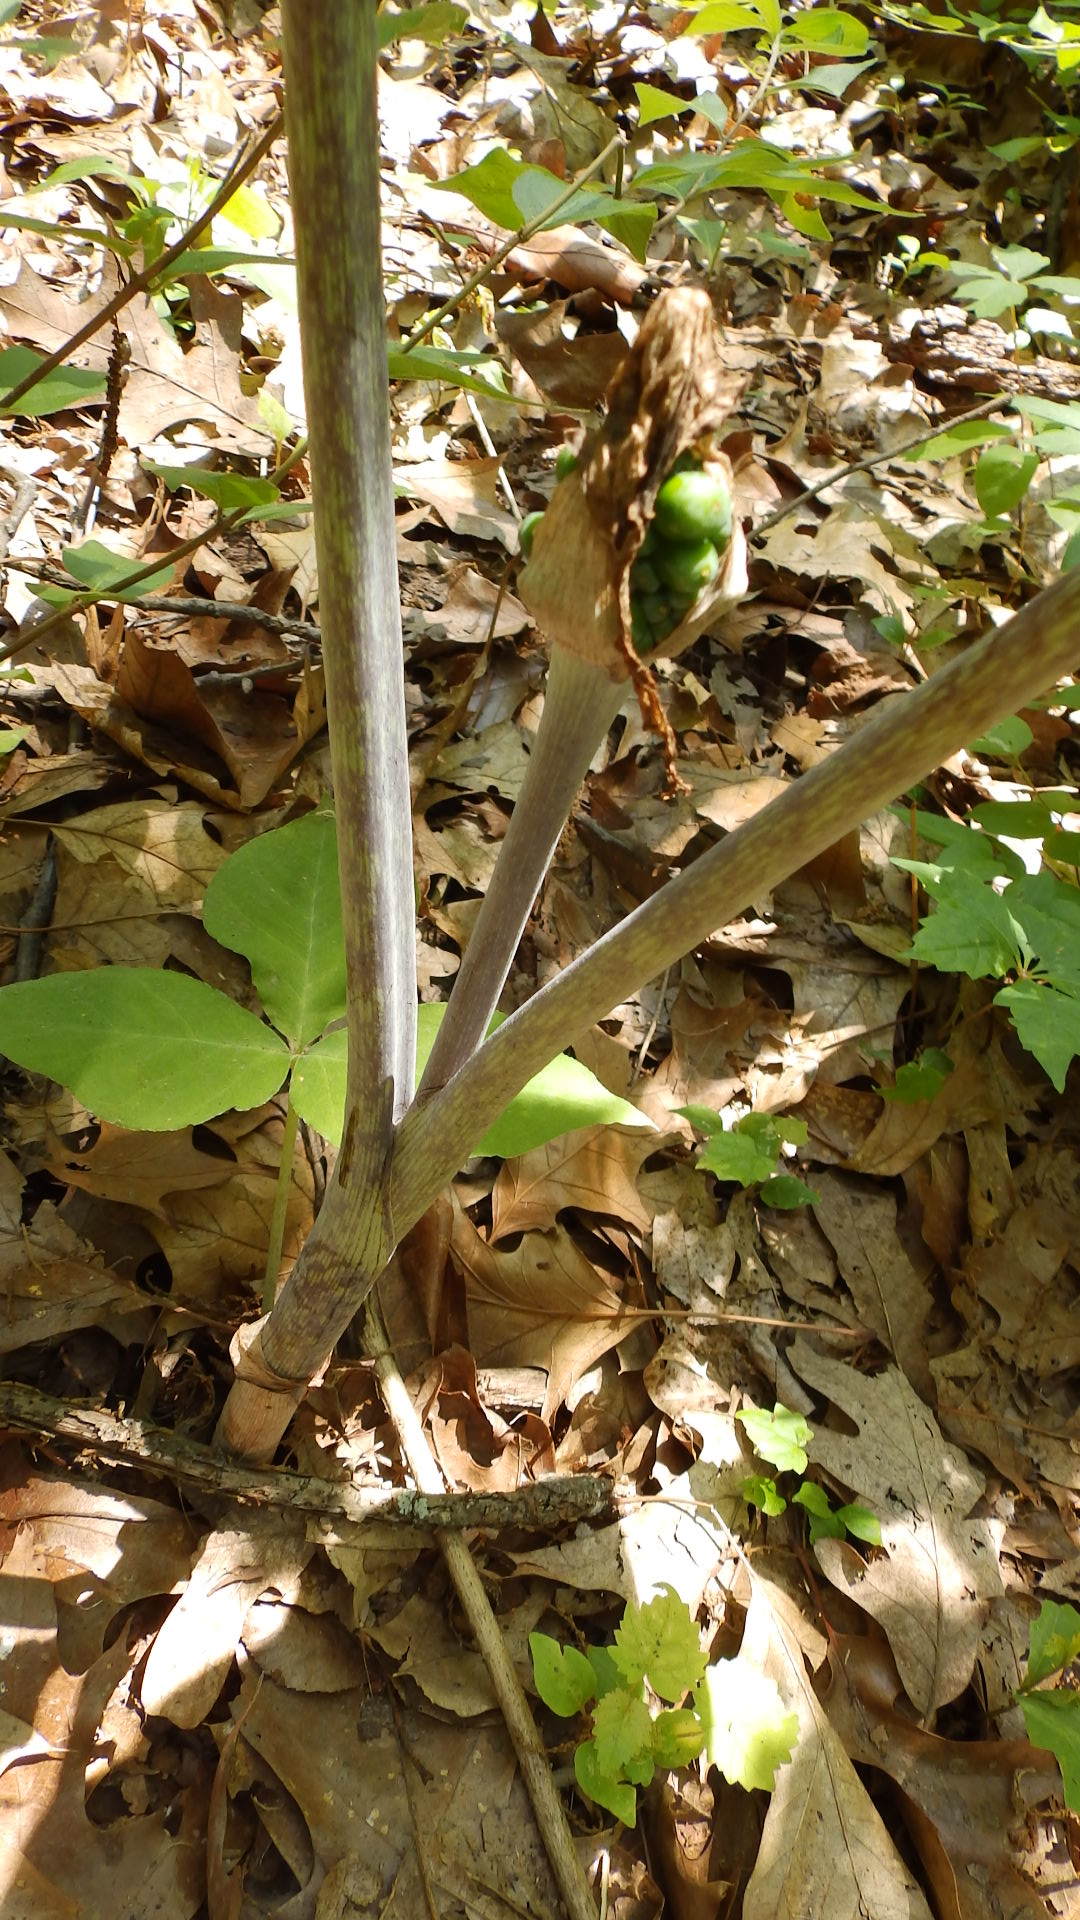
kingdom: Plantae
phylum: Tracheophyta
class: Liliopsida
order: Alismatales
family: Araceae
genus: Arisaema
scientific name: Arisaema triphyllum
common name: Jack-in-the-pulpit
